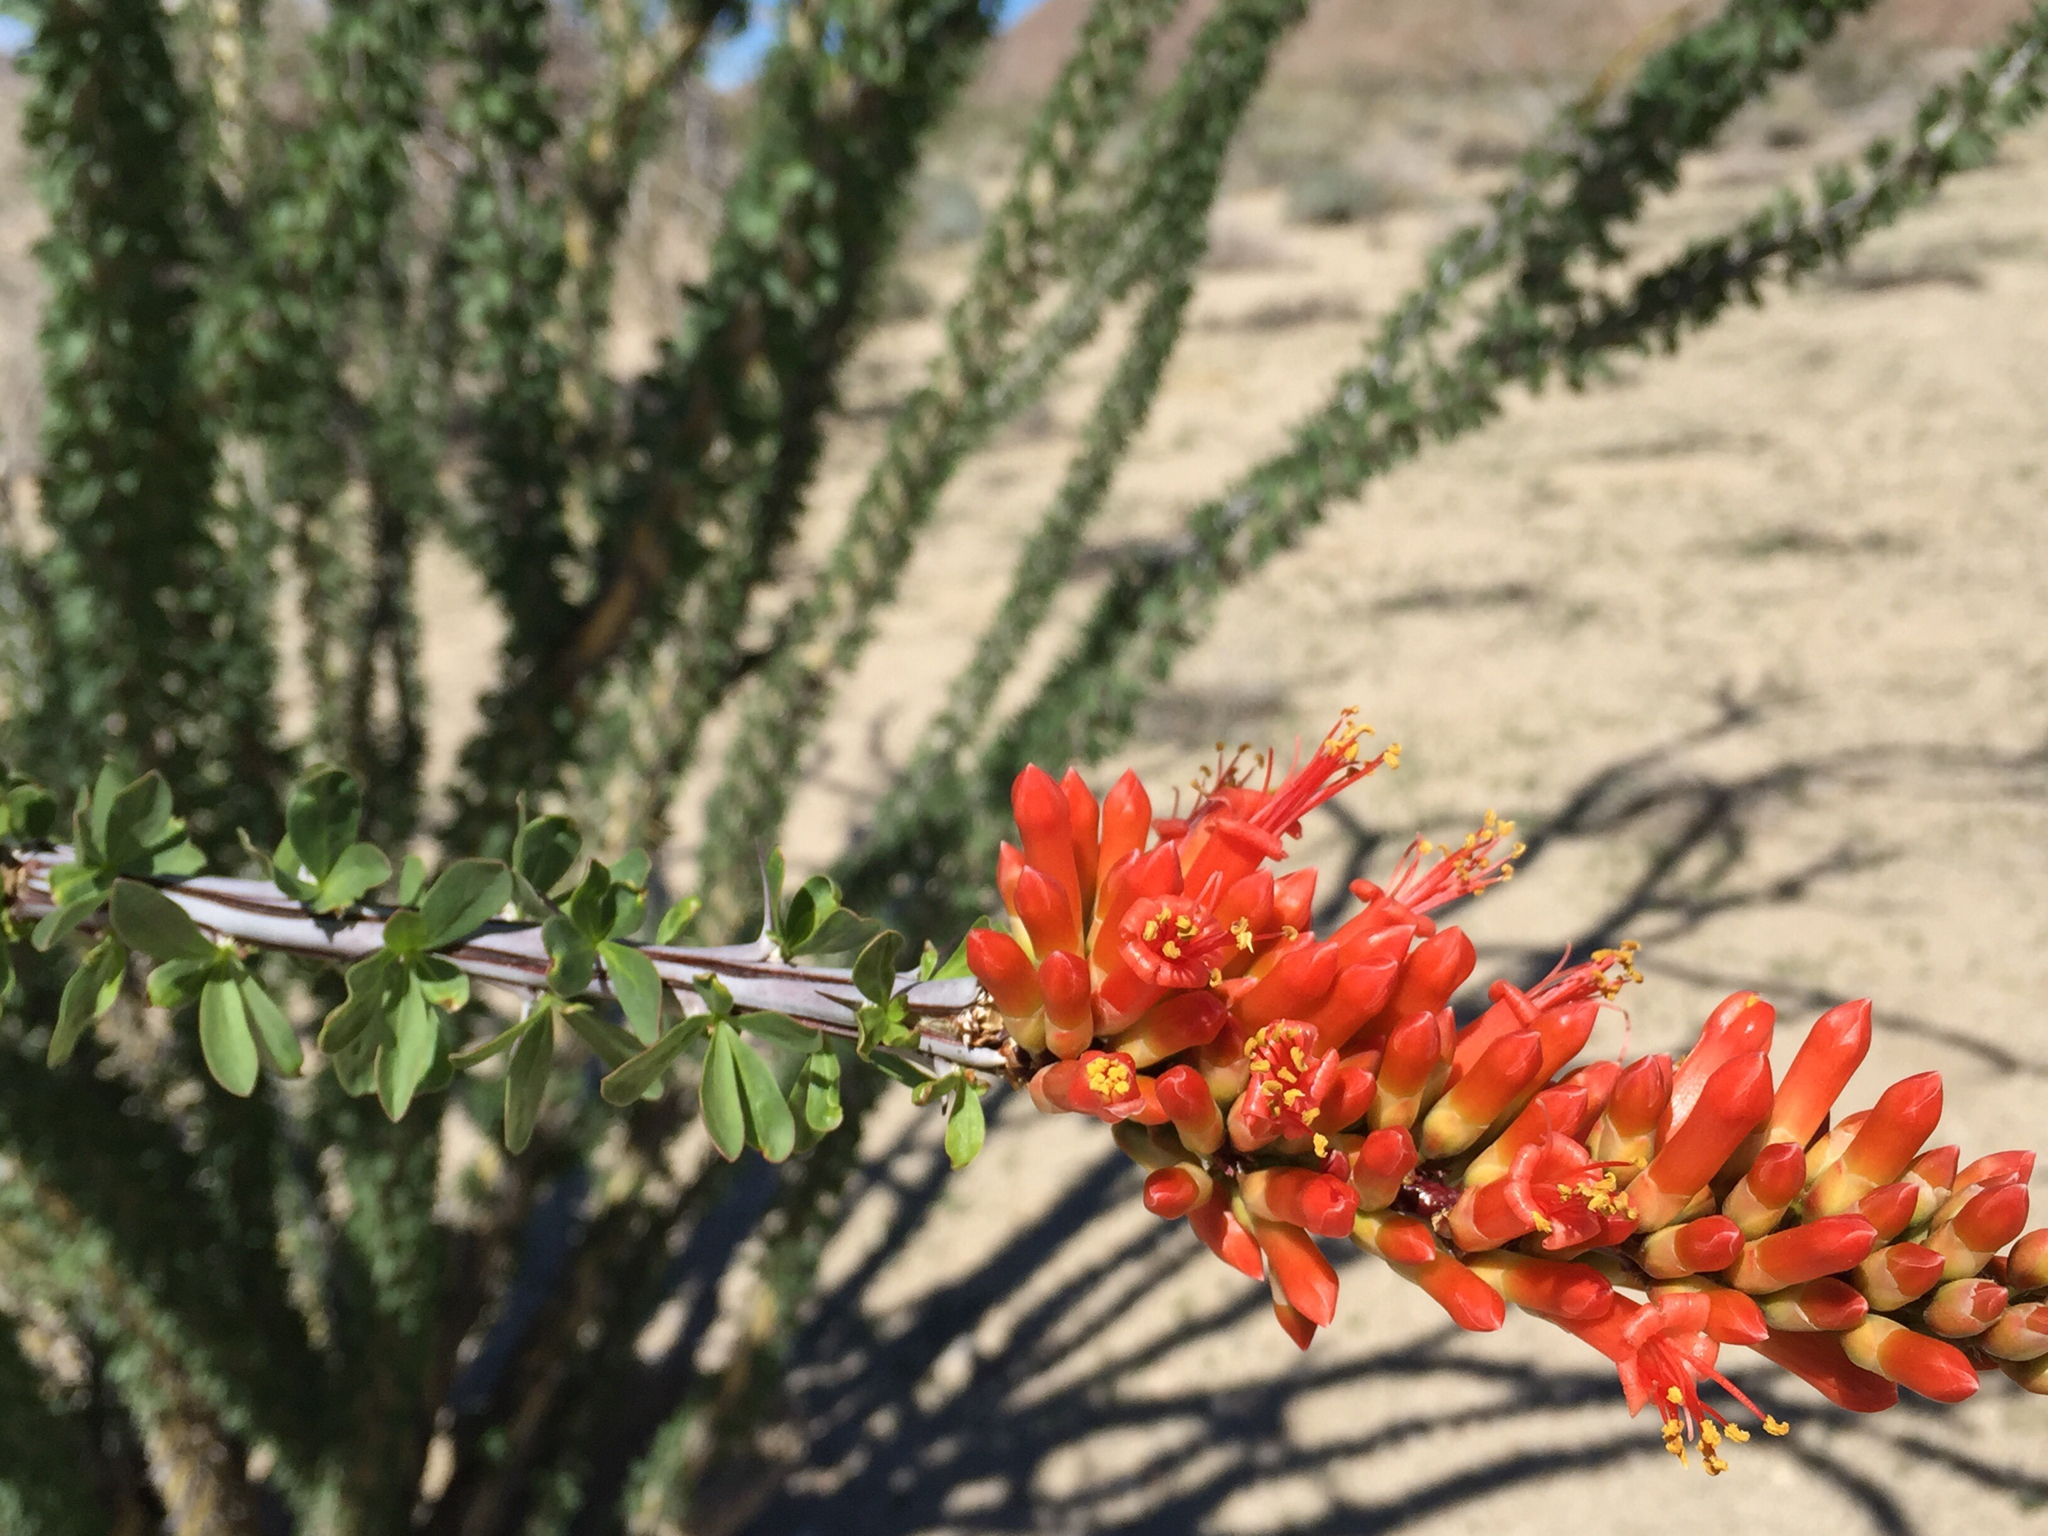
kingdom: Plantae
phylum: Tracheophyta
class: Magnoliopsida
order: Ericales
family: Fouquieriaceae
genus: Fouquieria
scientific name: Fouquieria splendens
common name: Vine-cactus
